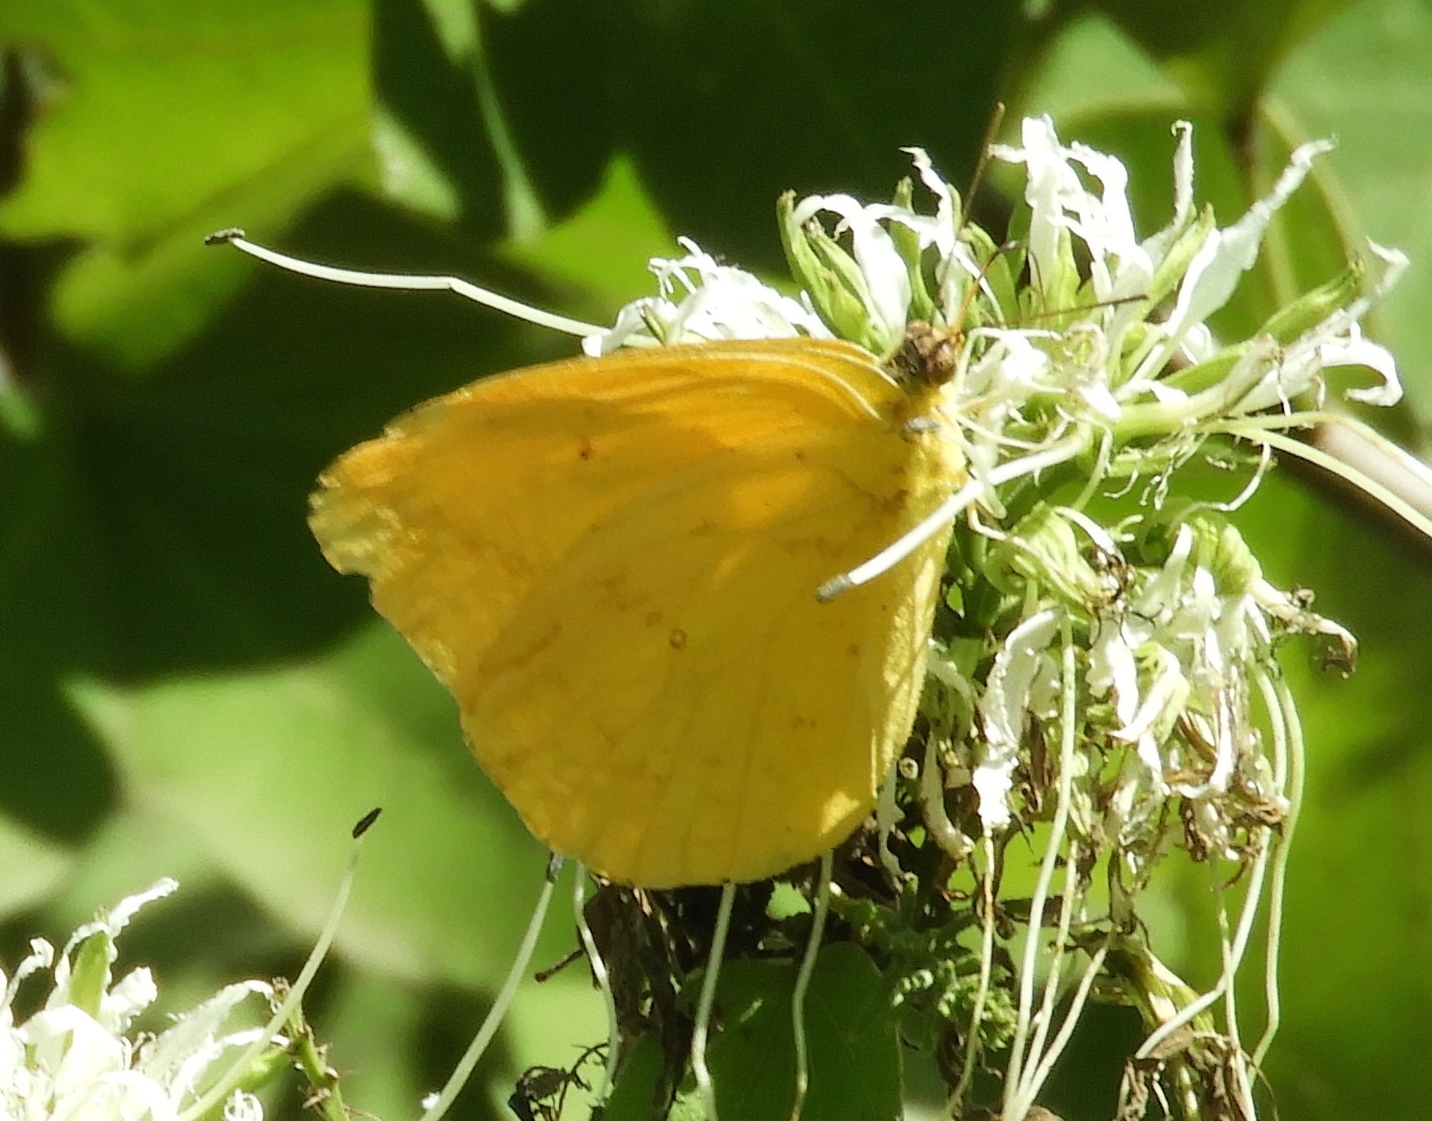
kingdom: Animalia
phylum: Arthropoda
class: Insecta
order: Lepidoptera
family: Pieridae
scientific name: Pieridae
